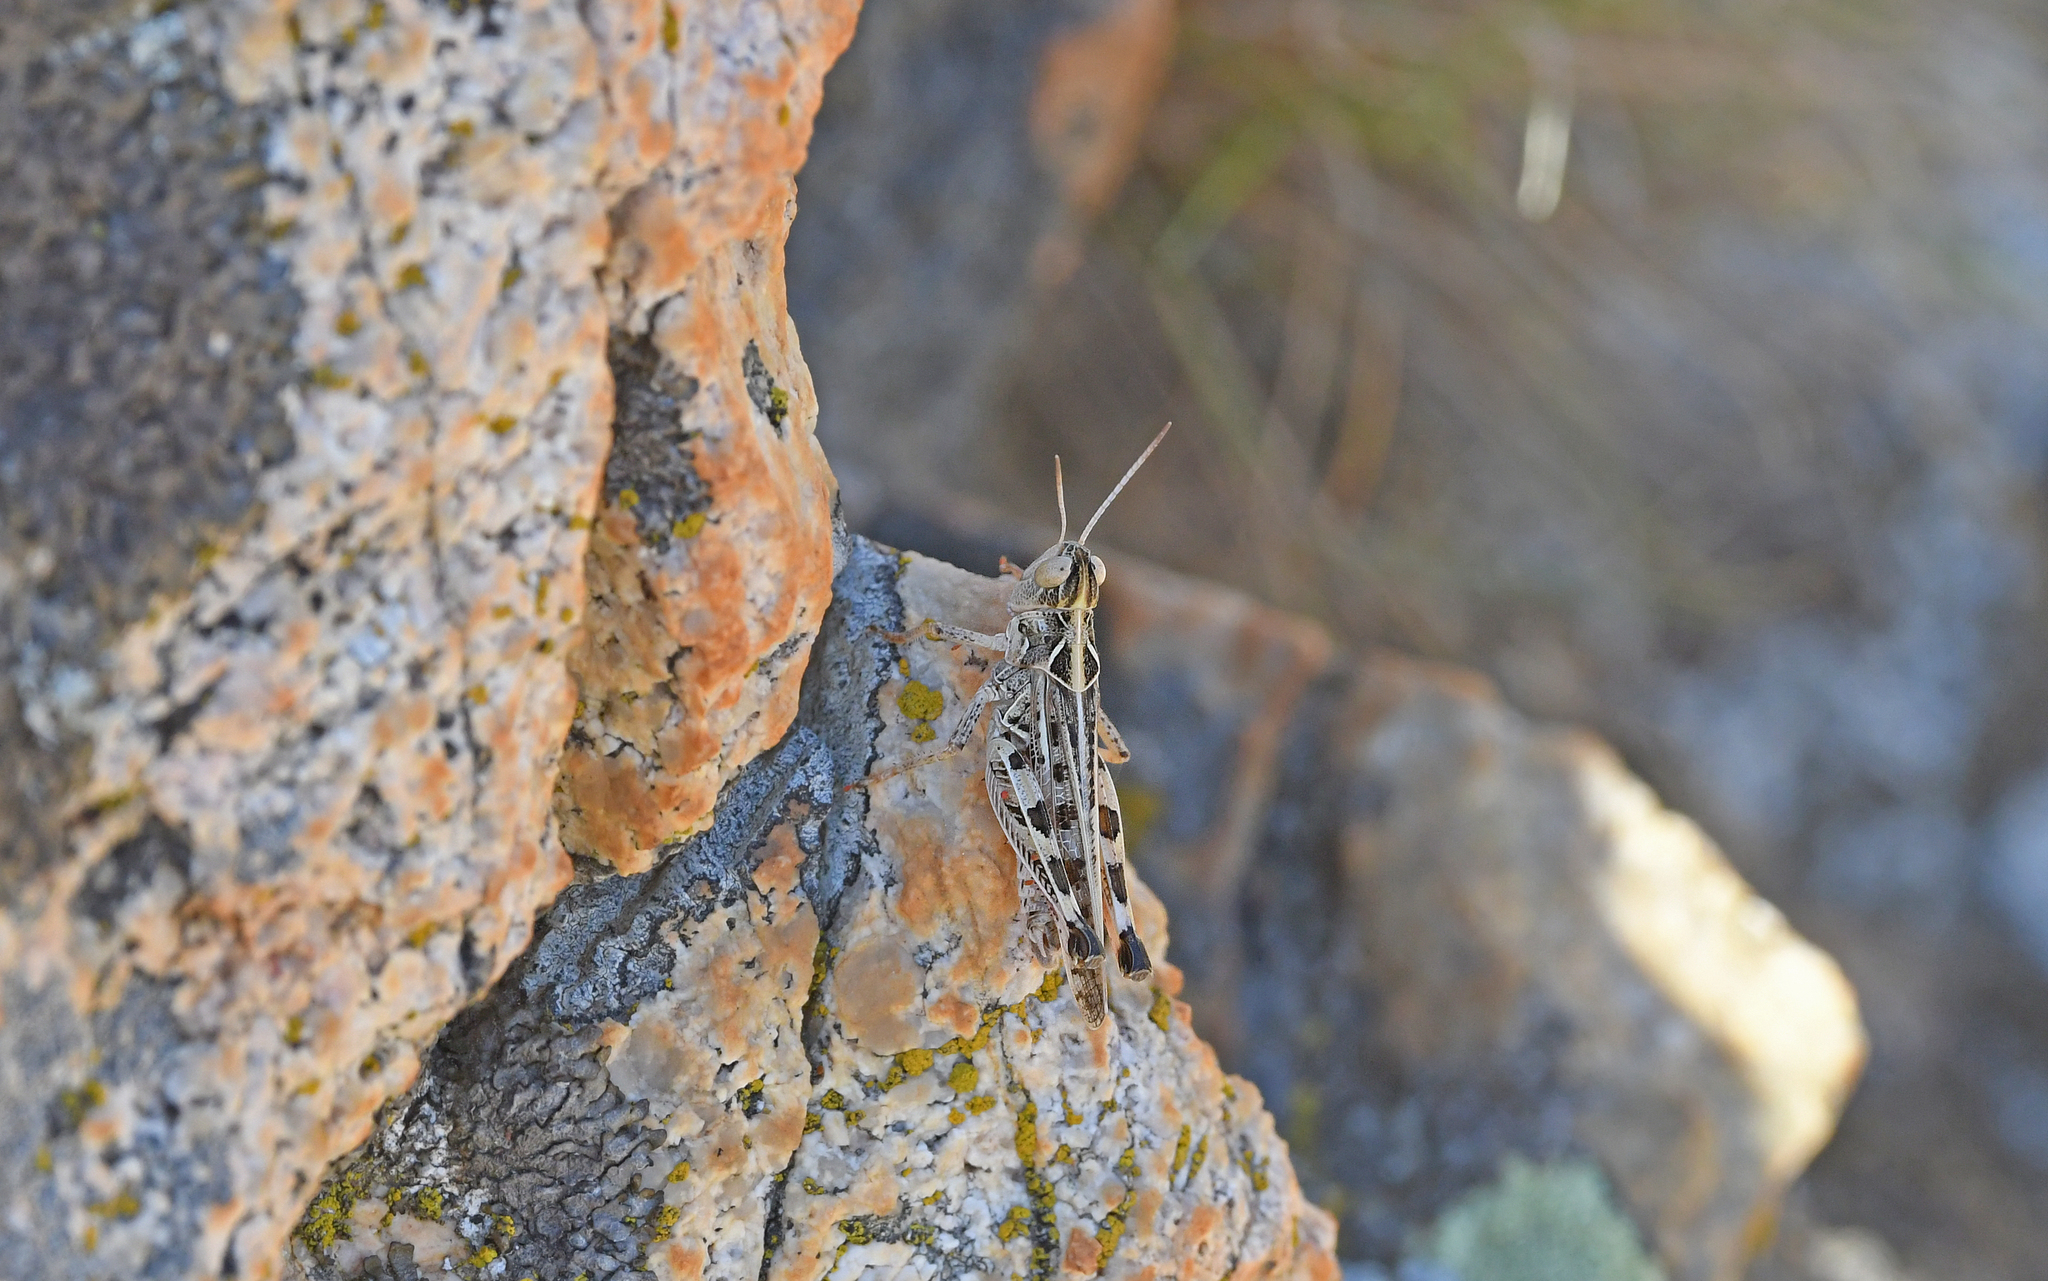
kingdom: Animalia
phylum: Arthropoda
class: Insecta
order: Orthoptera
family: Acrididae
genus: Dociostaurus
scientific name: Dociostaurus jagoi
